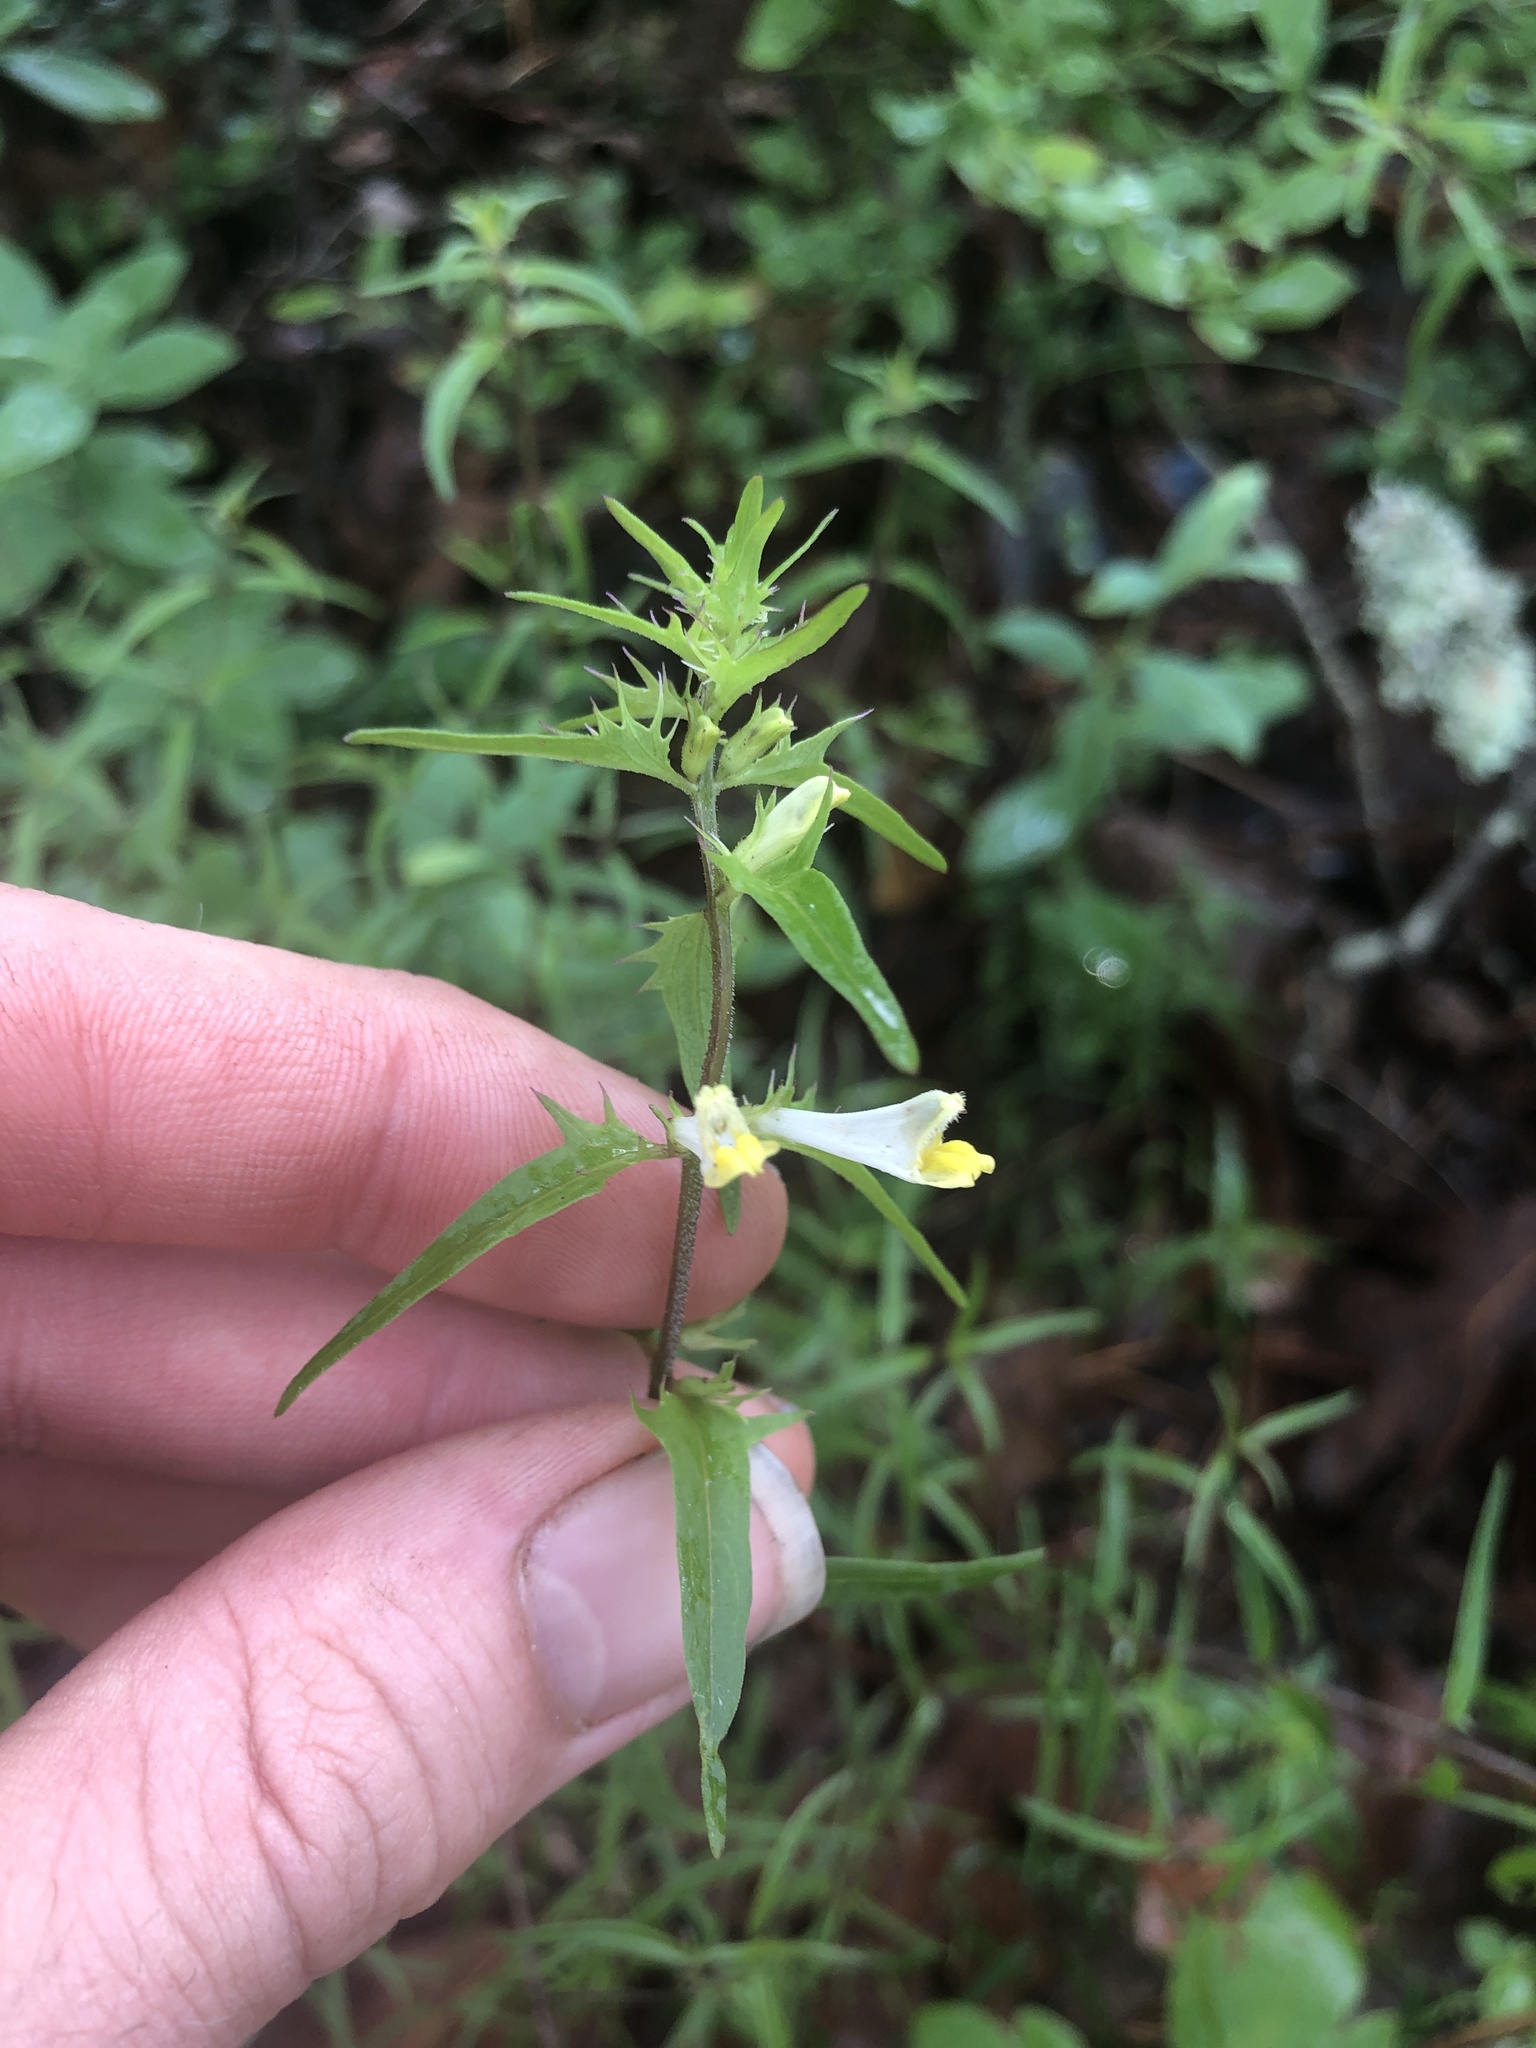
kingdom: Plantae
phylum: Tracheophyta
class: Magnoliopsida
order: Lamiales
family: Orobanchaceae
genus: Melampyrum
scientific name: Melampyrum lineare
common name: American cow-wheat
